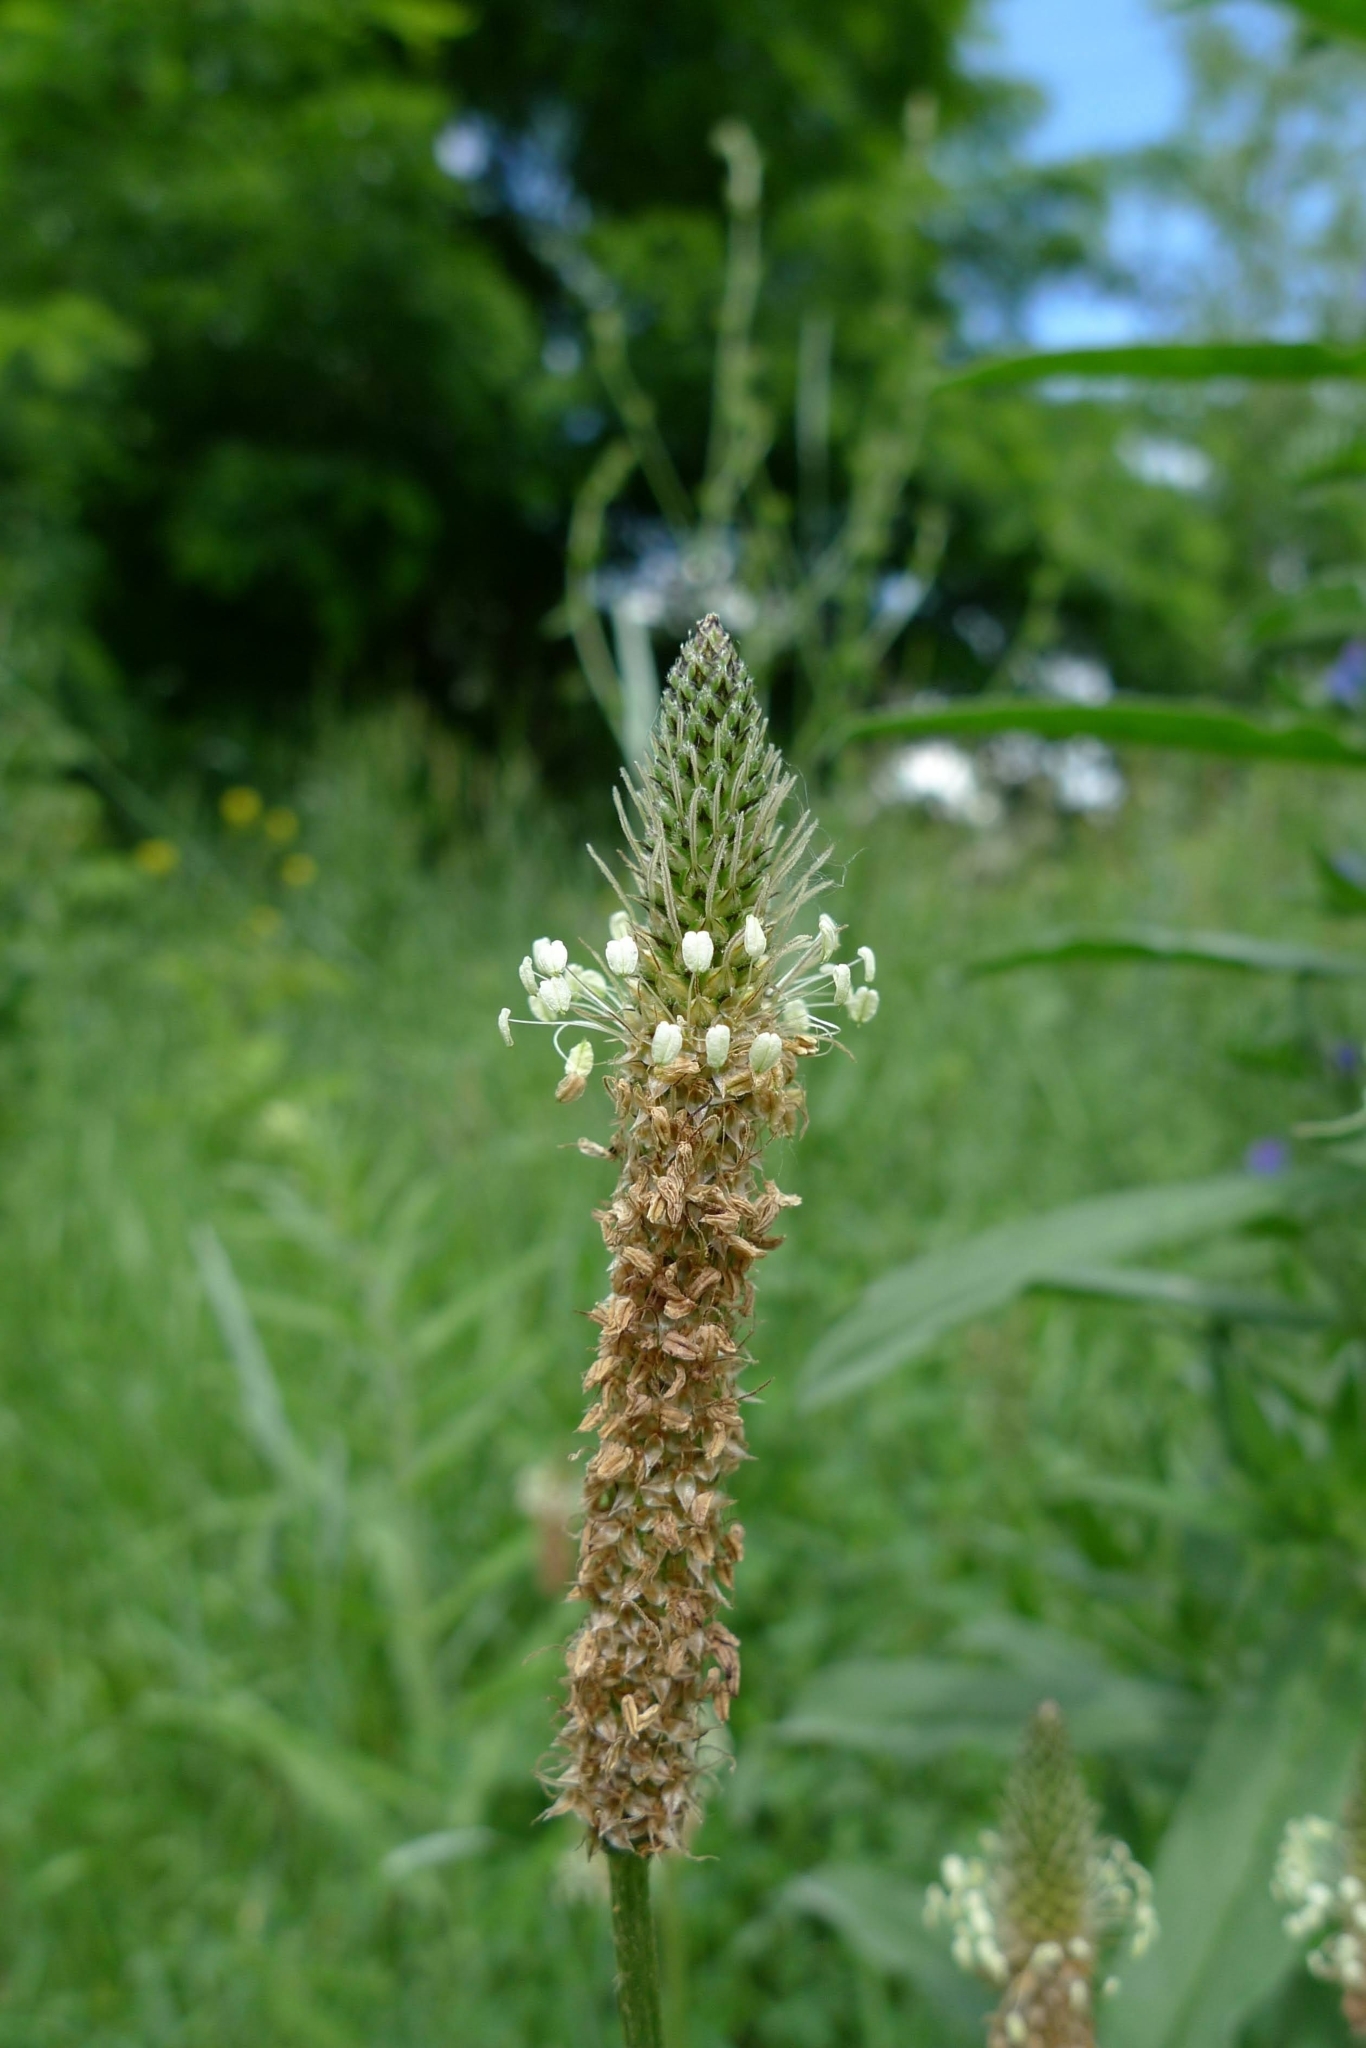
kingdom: Plantae
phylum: Tracheophyta
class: Magnoliopsida
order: Lamiales
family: Plantaginaceae
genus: Plantago
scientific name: Plantago lanceolata
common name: Ribwort plantain
